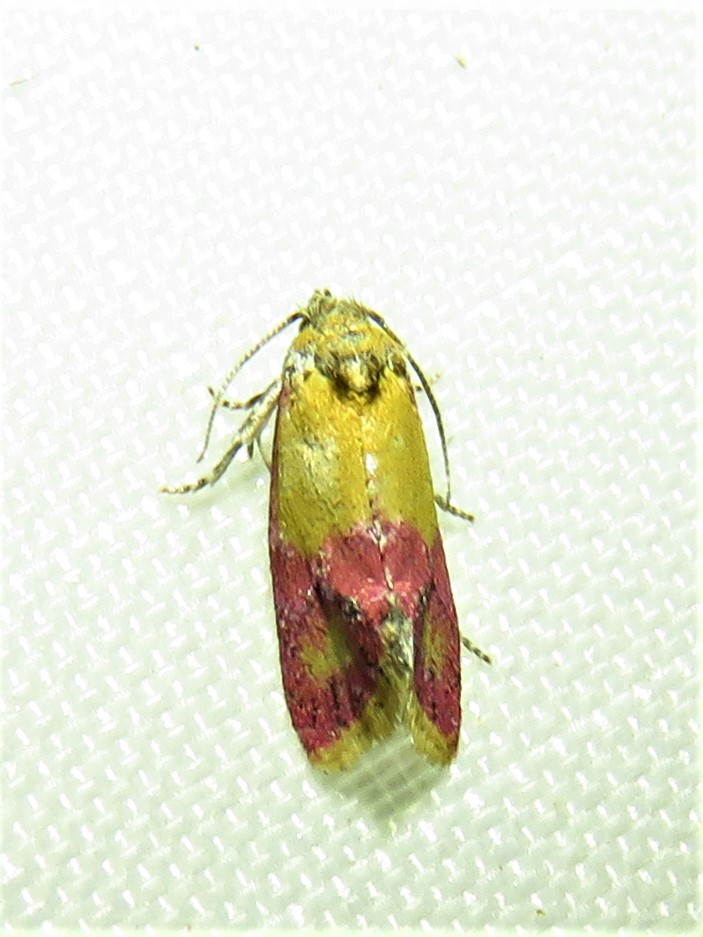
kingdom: Animalia
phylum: Arthropoda
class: Insecta
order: Lepidoptera
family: Tortricidae
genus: Conchylis
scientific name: Conchylis oenotherana
